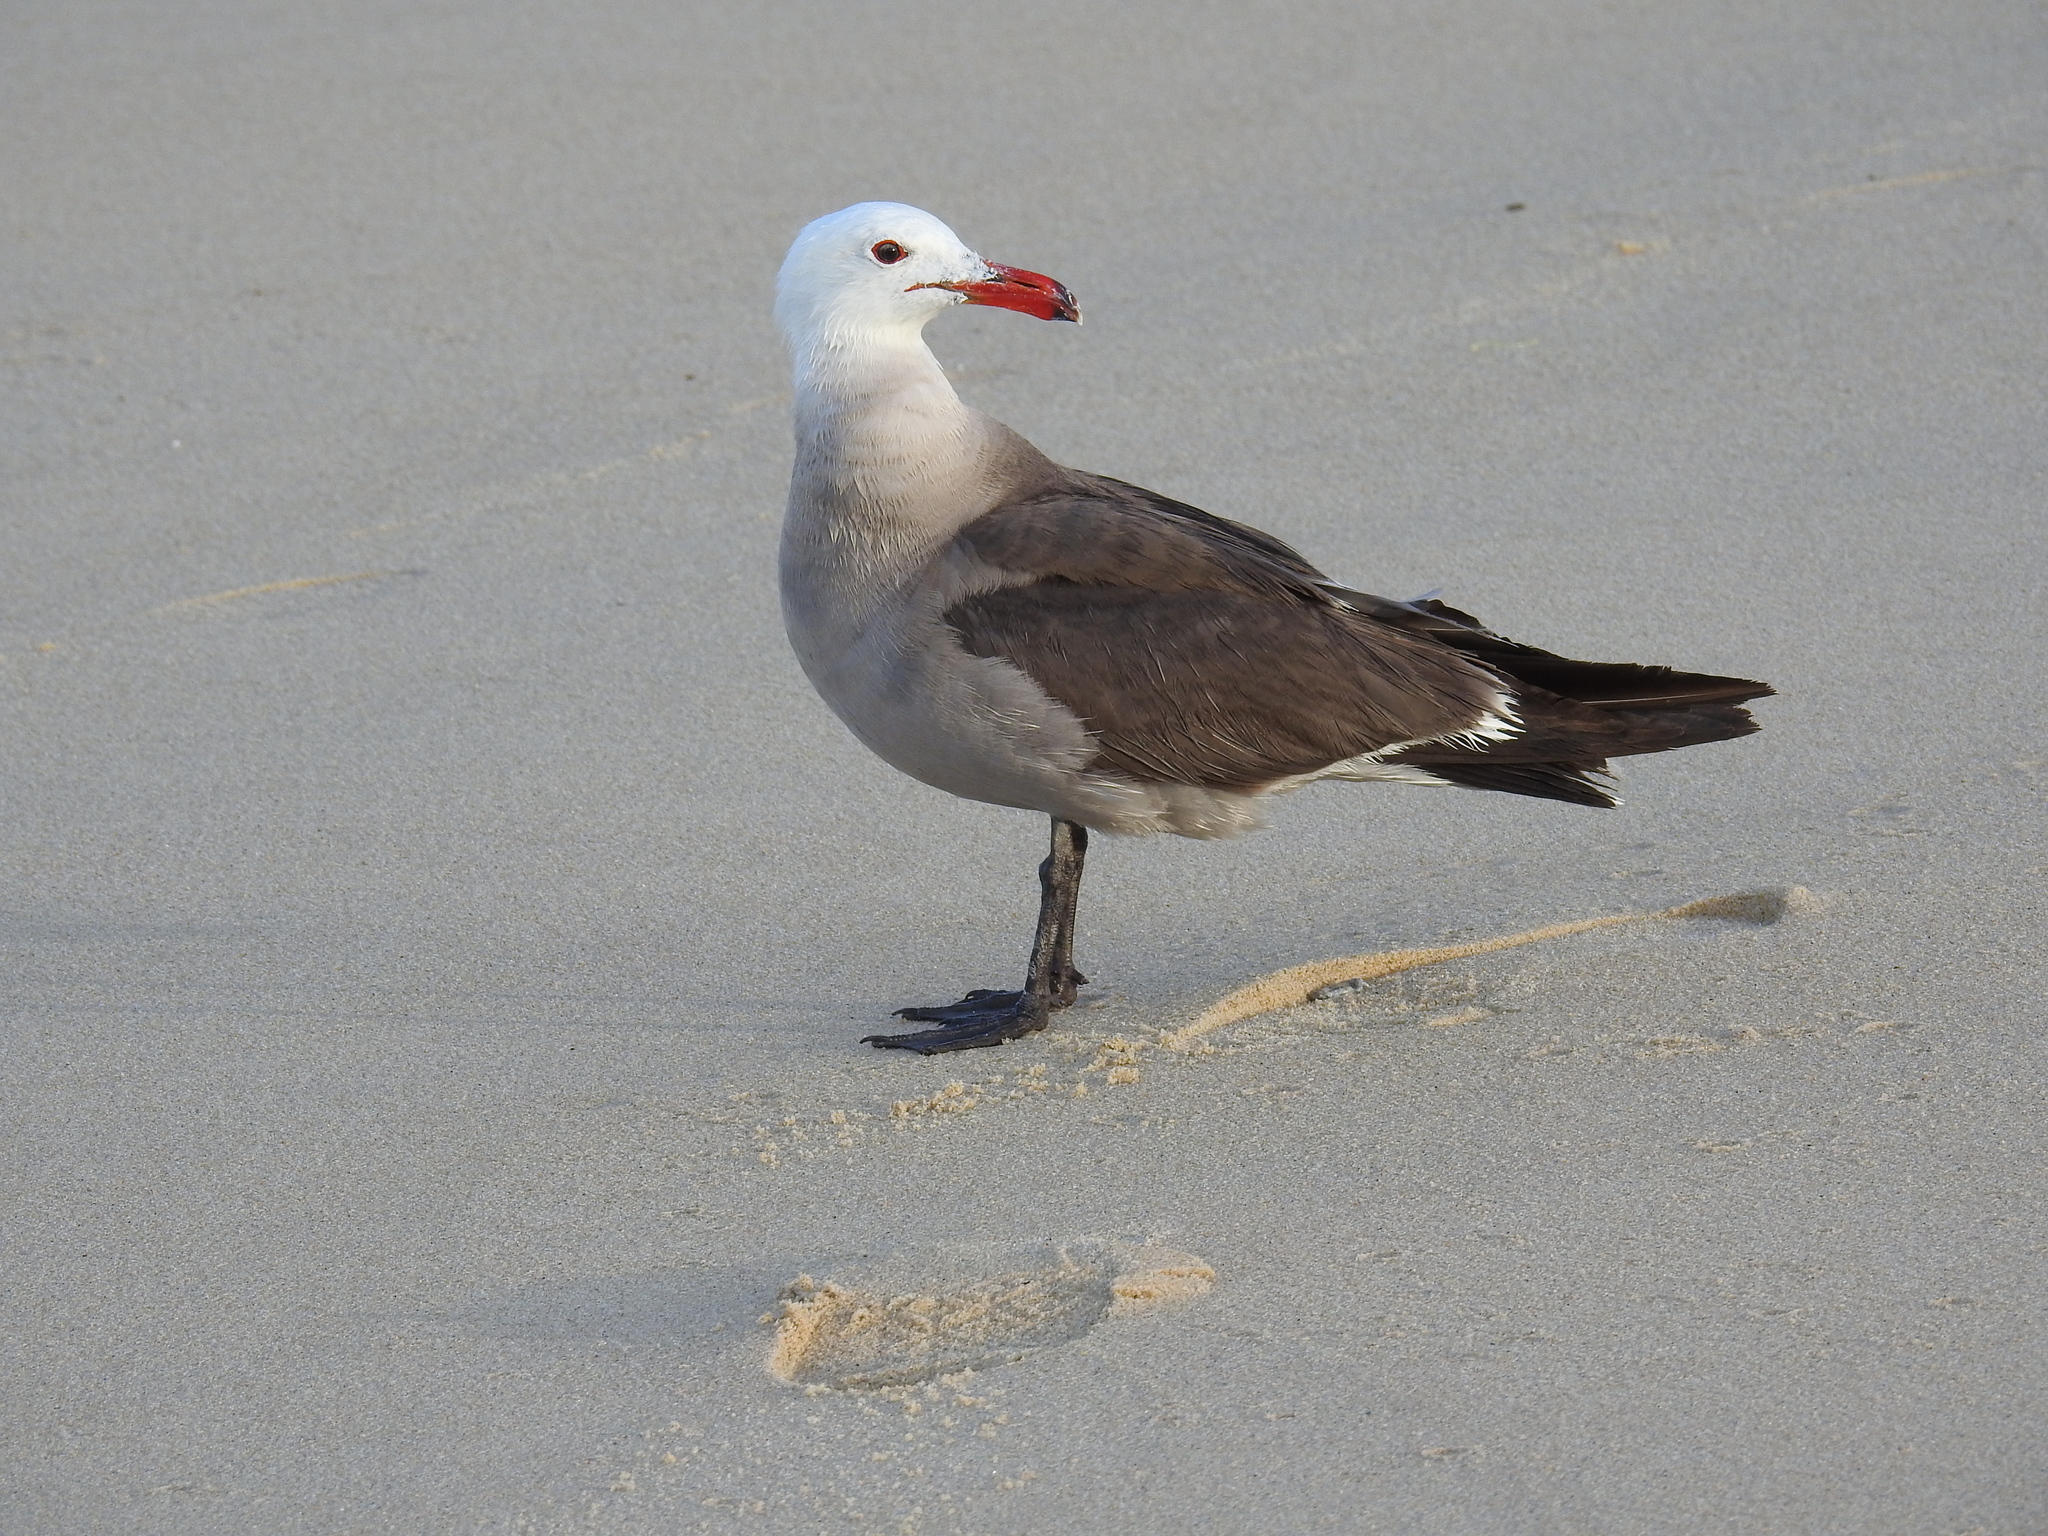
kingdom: Animalia
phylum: Chordata
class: Aves
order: Charadriiformes
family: Laridae
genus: Larus
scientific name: Larus heermanni
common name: Heermann's gull
